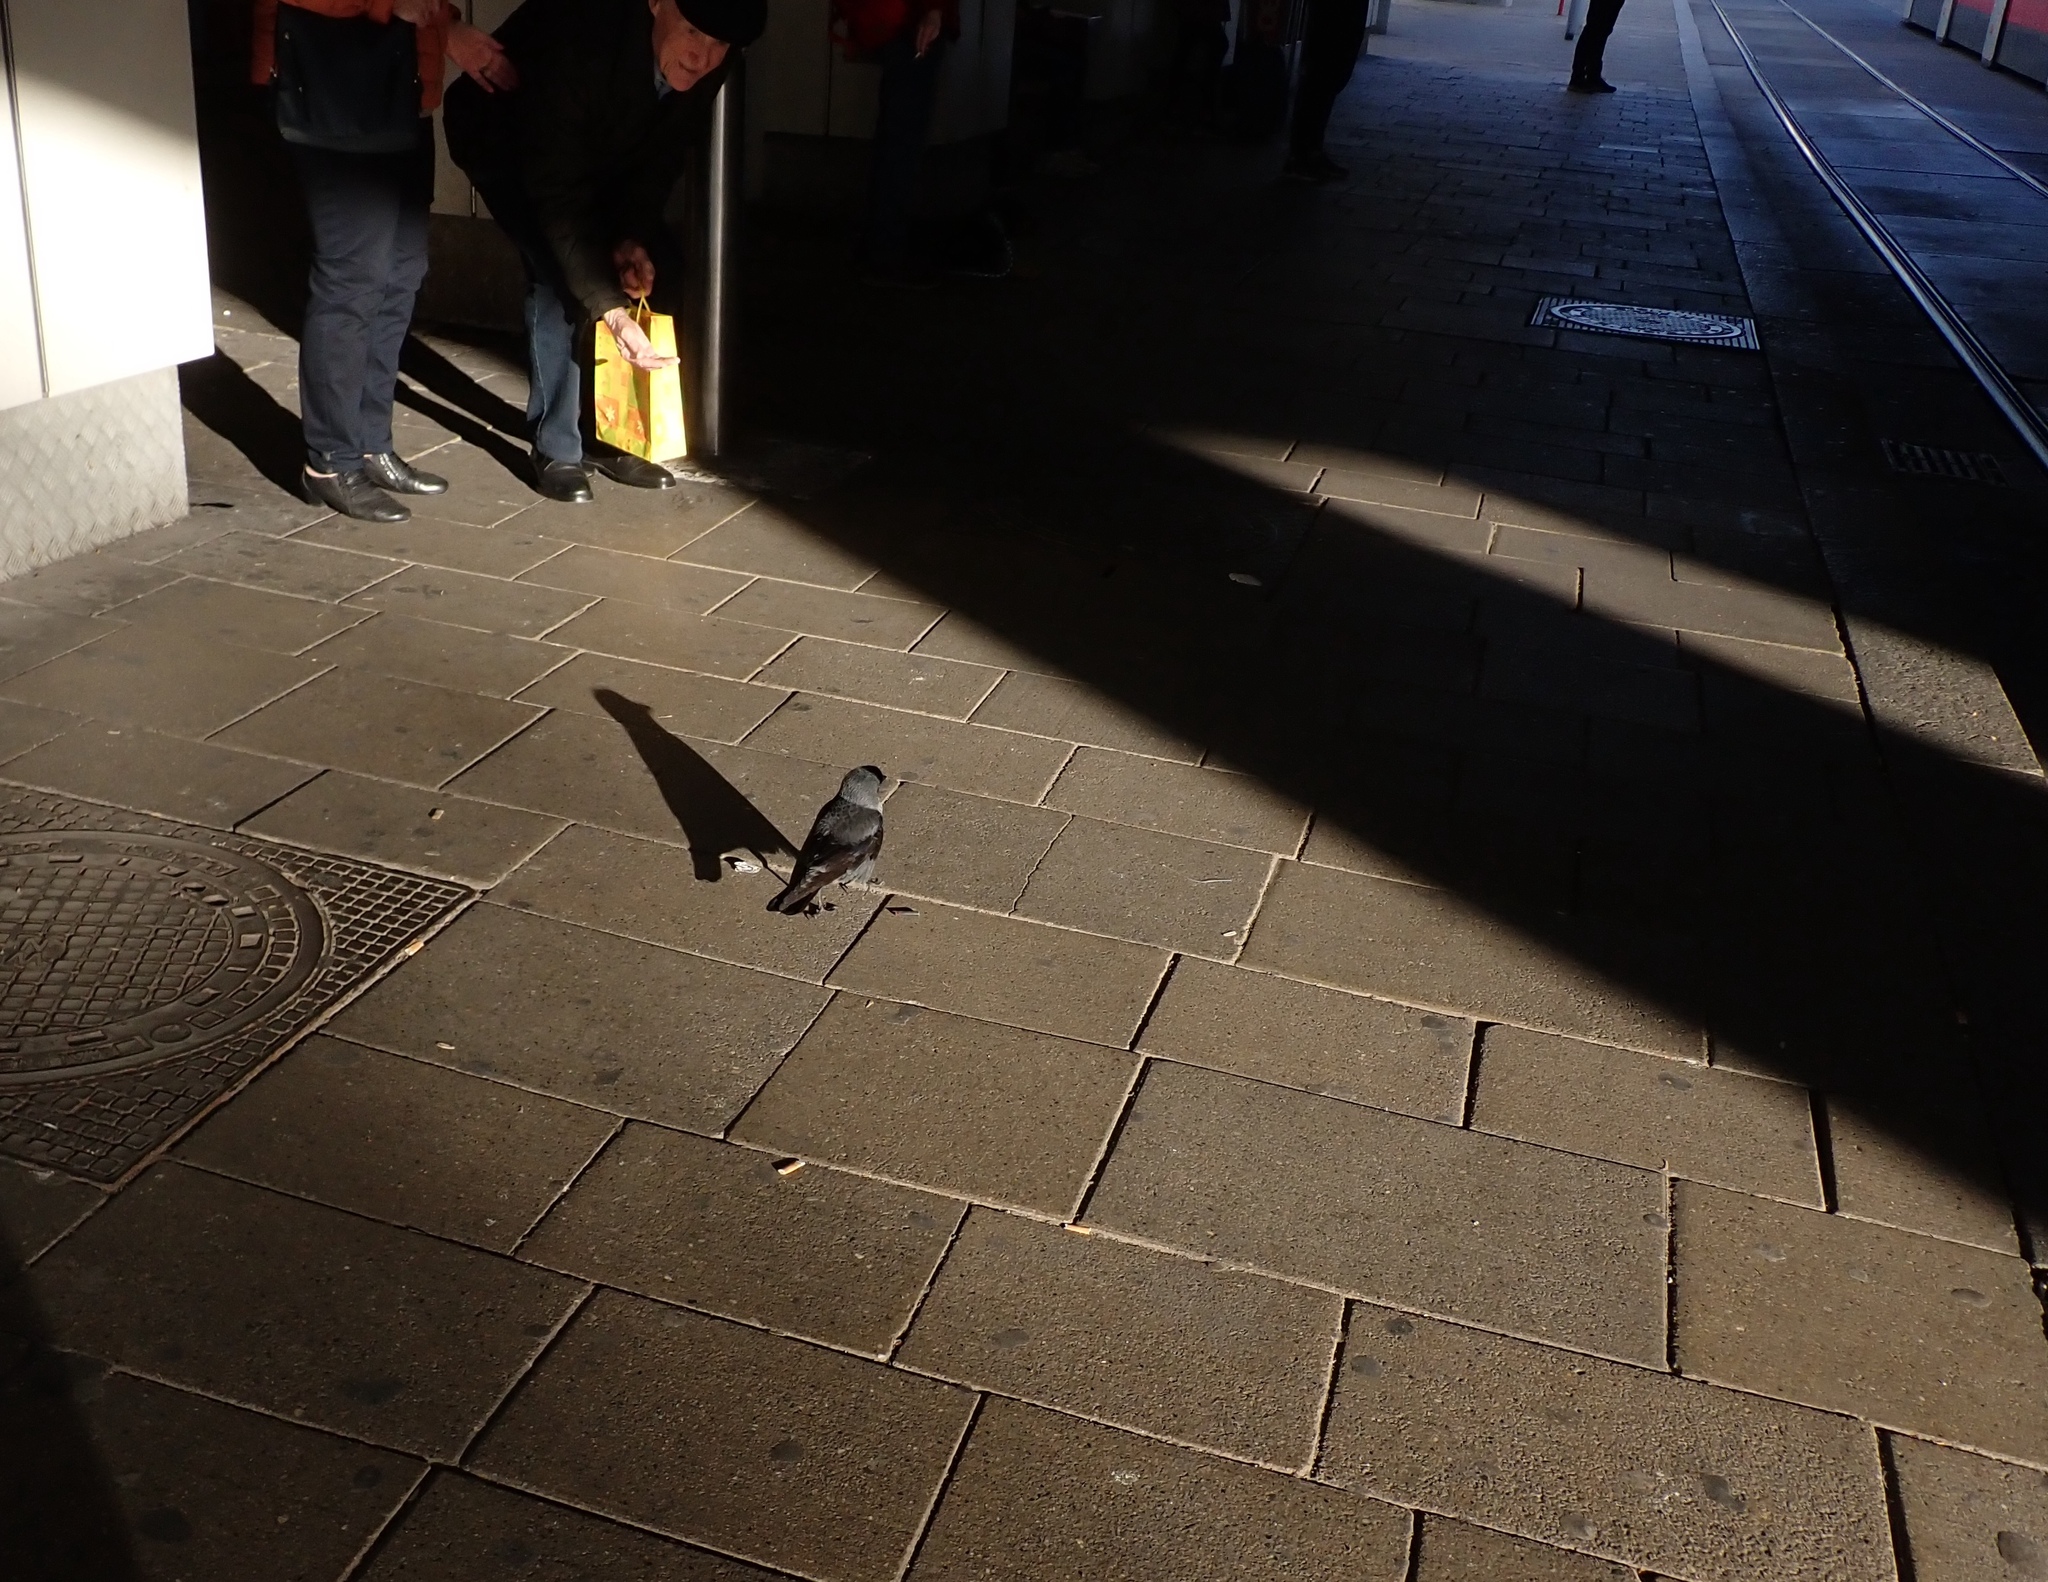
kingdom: Animalia
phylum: Chordata
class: Aves
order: Passeriformes
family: Corvidae
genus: Coloeus
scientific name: Coloeus monedula
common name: Western jackdaw
